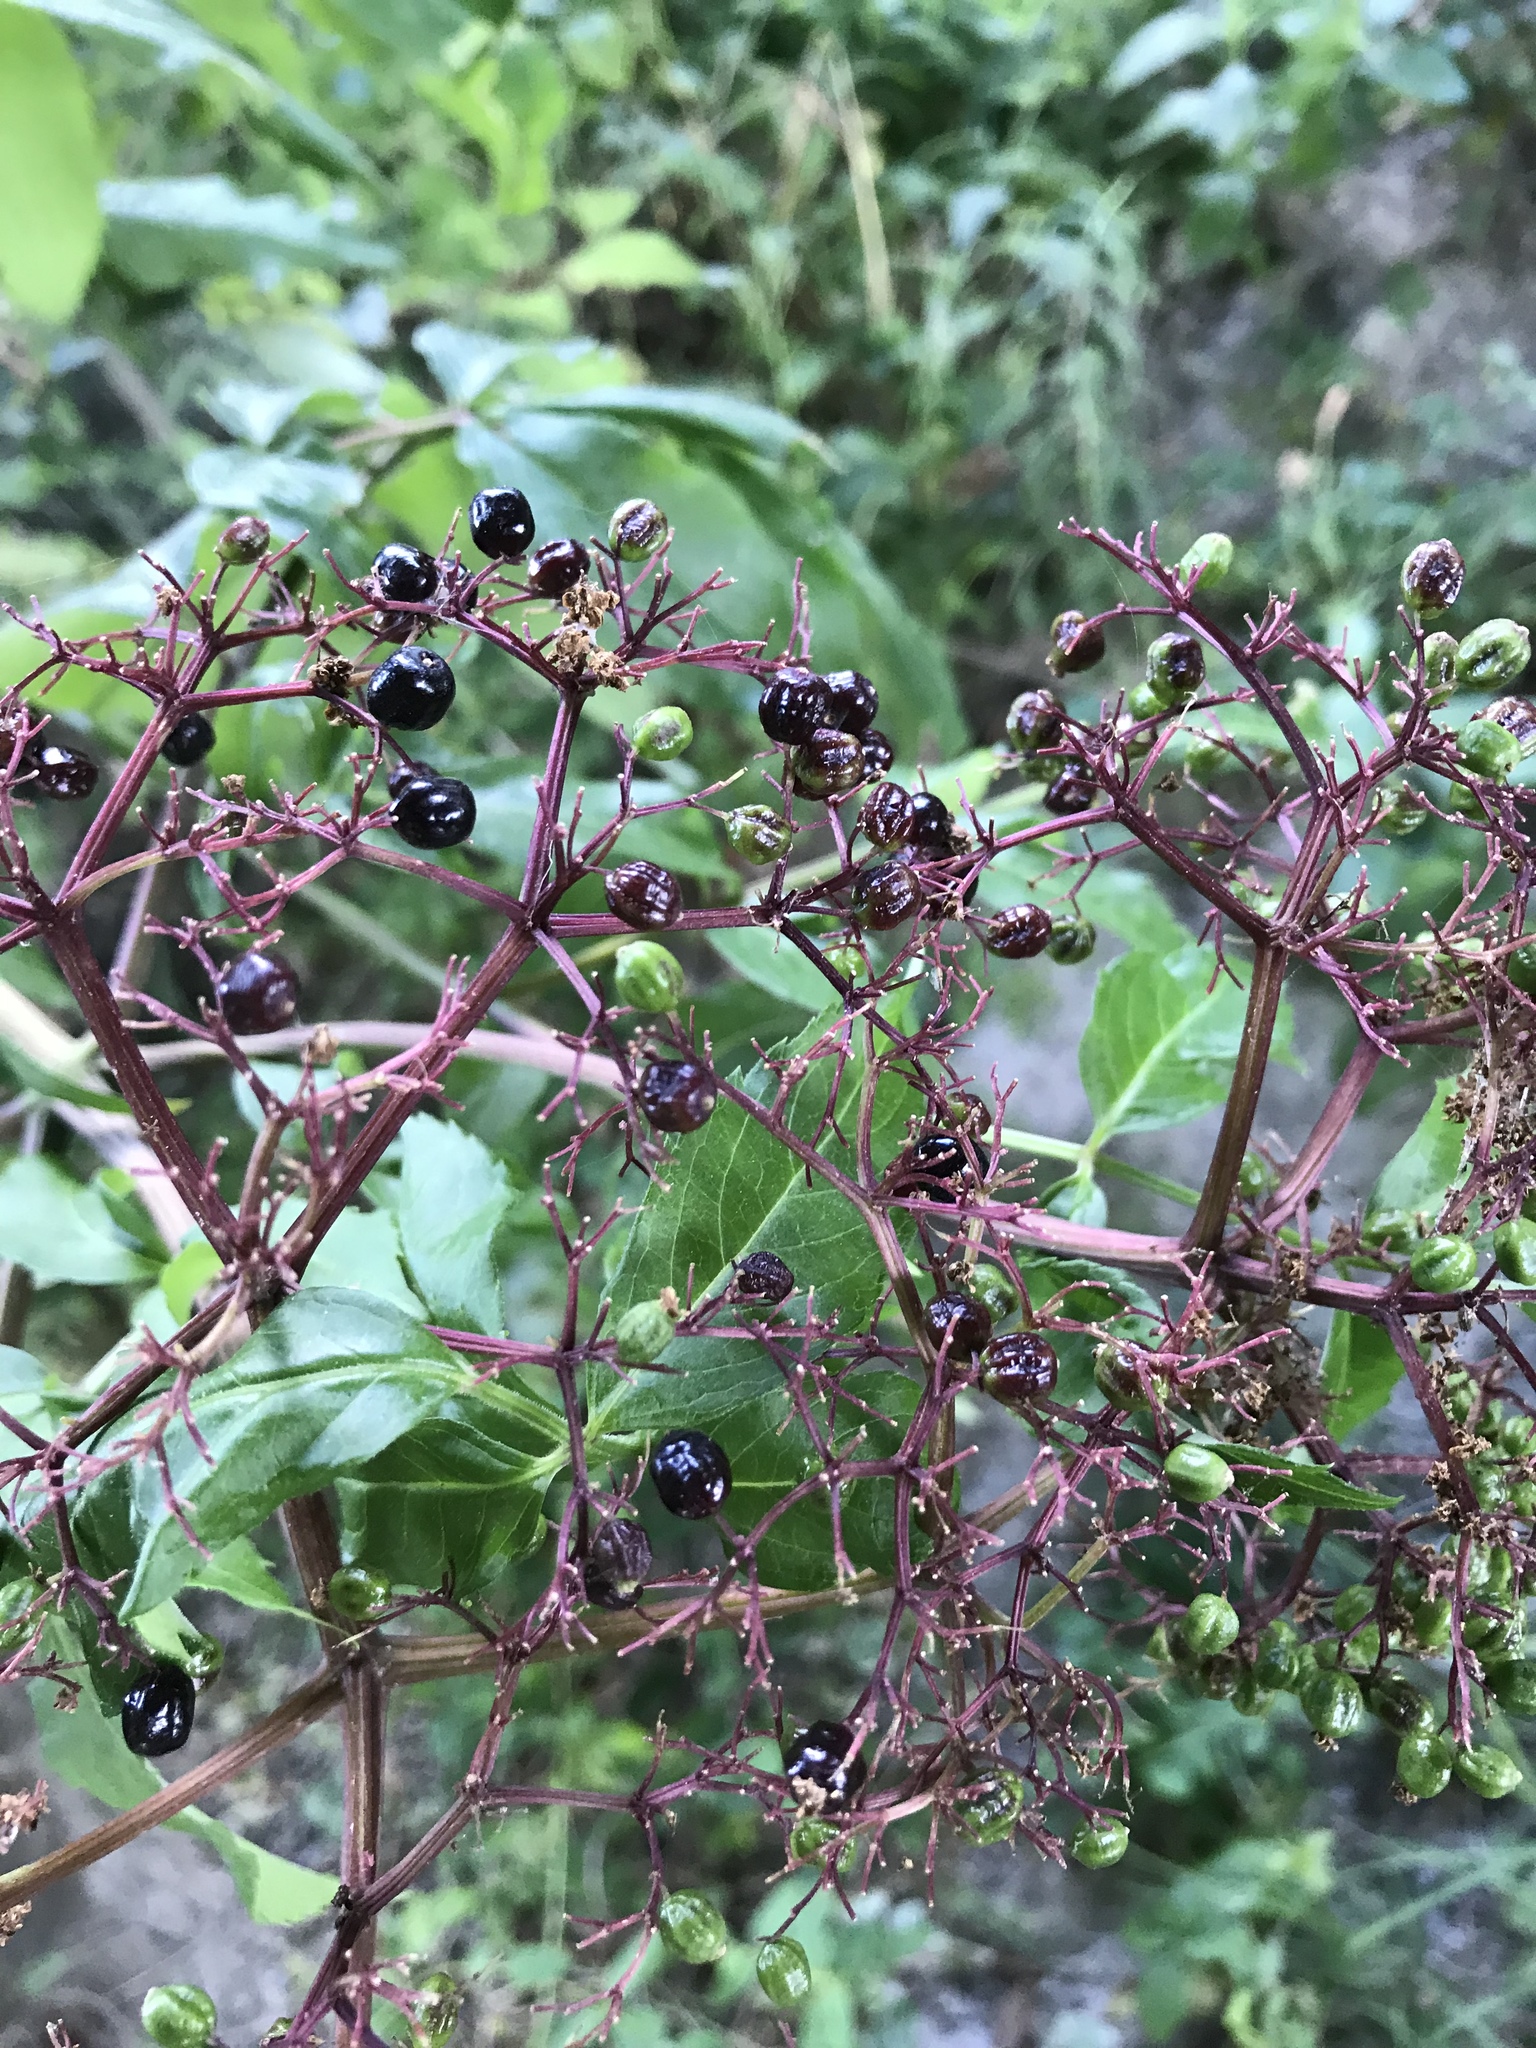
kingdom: Plantae
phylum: Tracheophyta
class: Magnoliopsida
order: Dipsacales
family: Viburnaceae
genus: Sambucus
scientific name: Sambucus canadensis
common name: American elder
